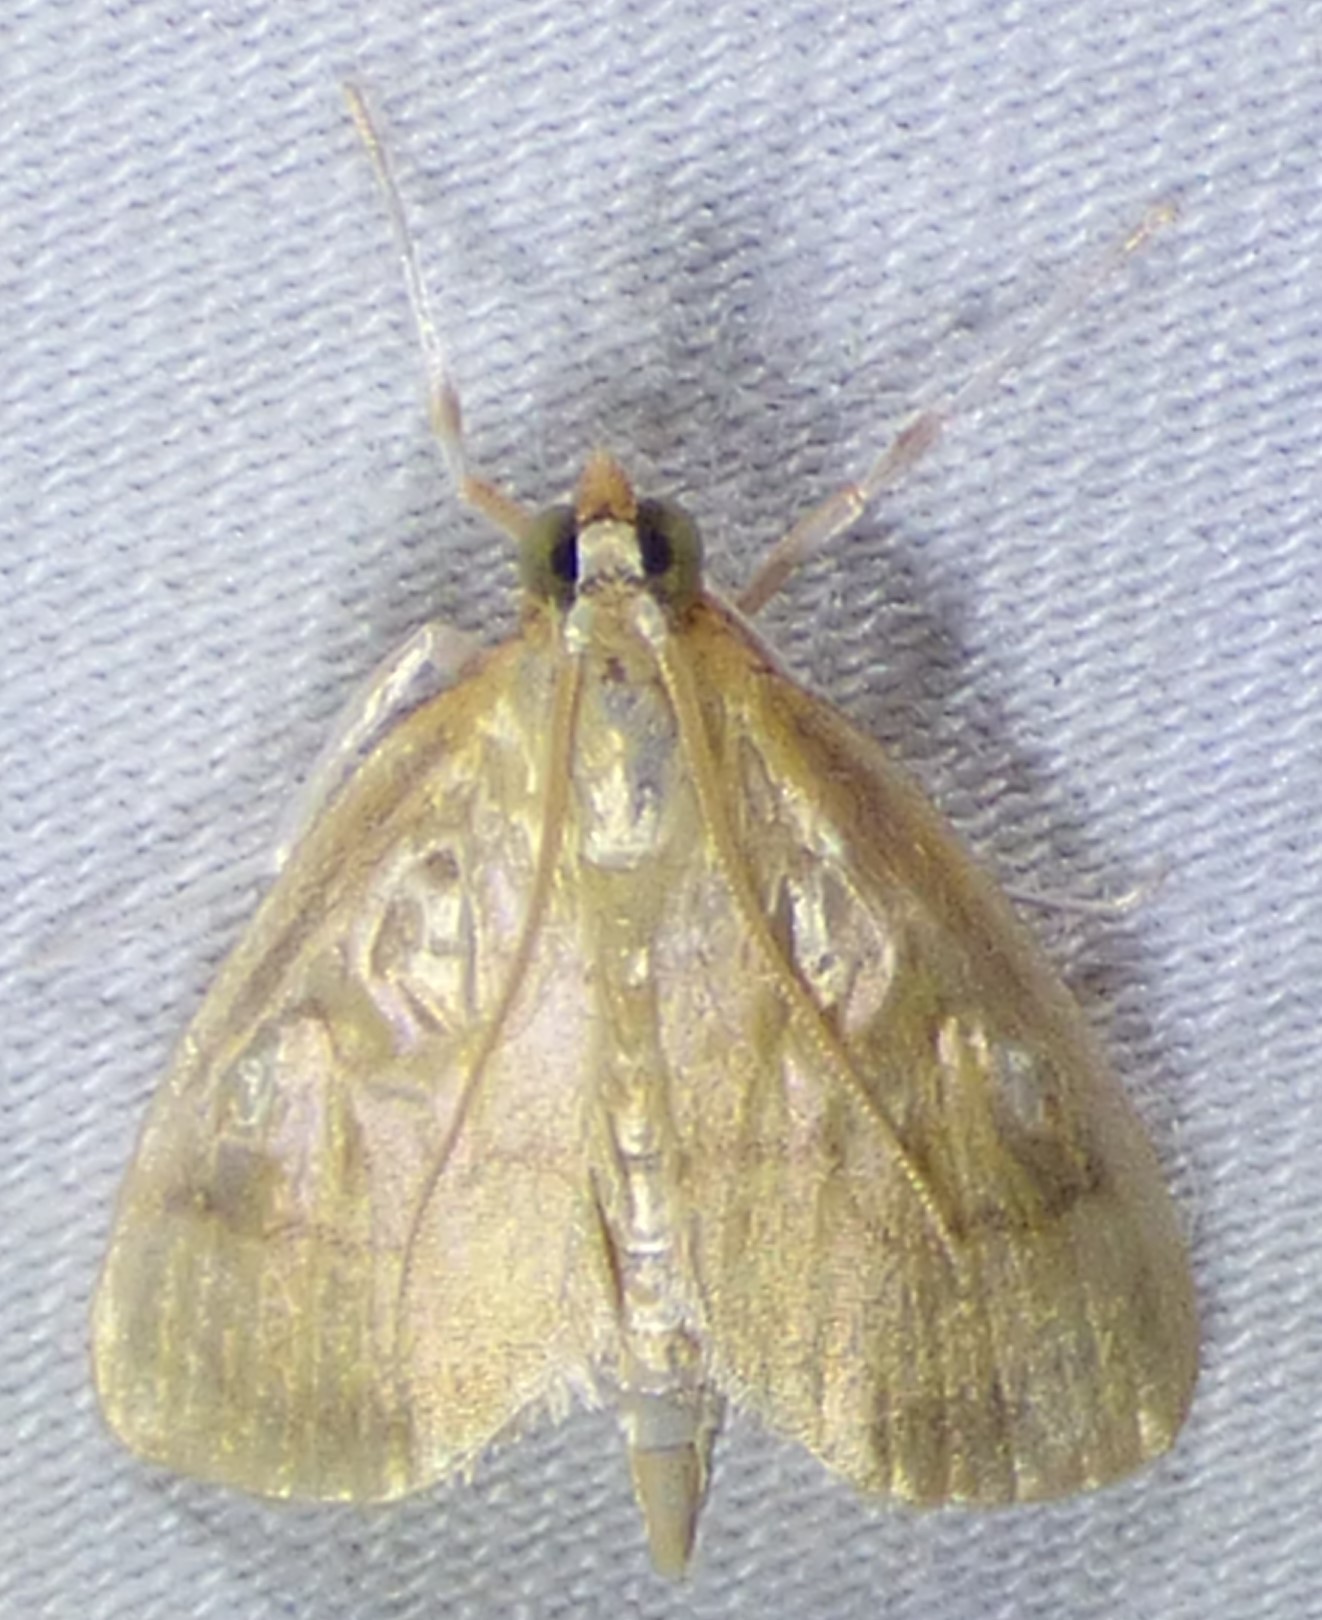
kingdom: Animalia
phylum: Arthropoda
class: Insecta
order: Lepidoptera
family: Crambidae
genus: Crocidophora
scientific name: Crocidophora tuberculalis
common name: Pale-winged crocidiphora moth
